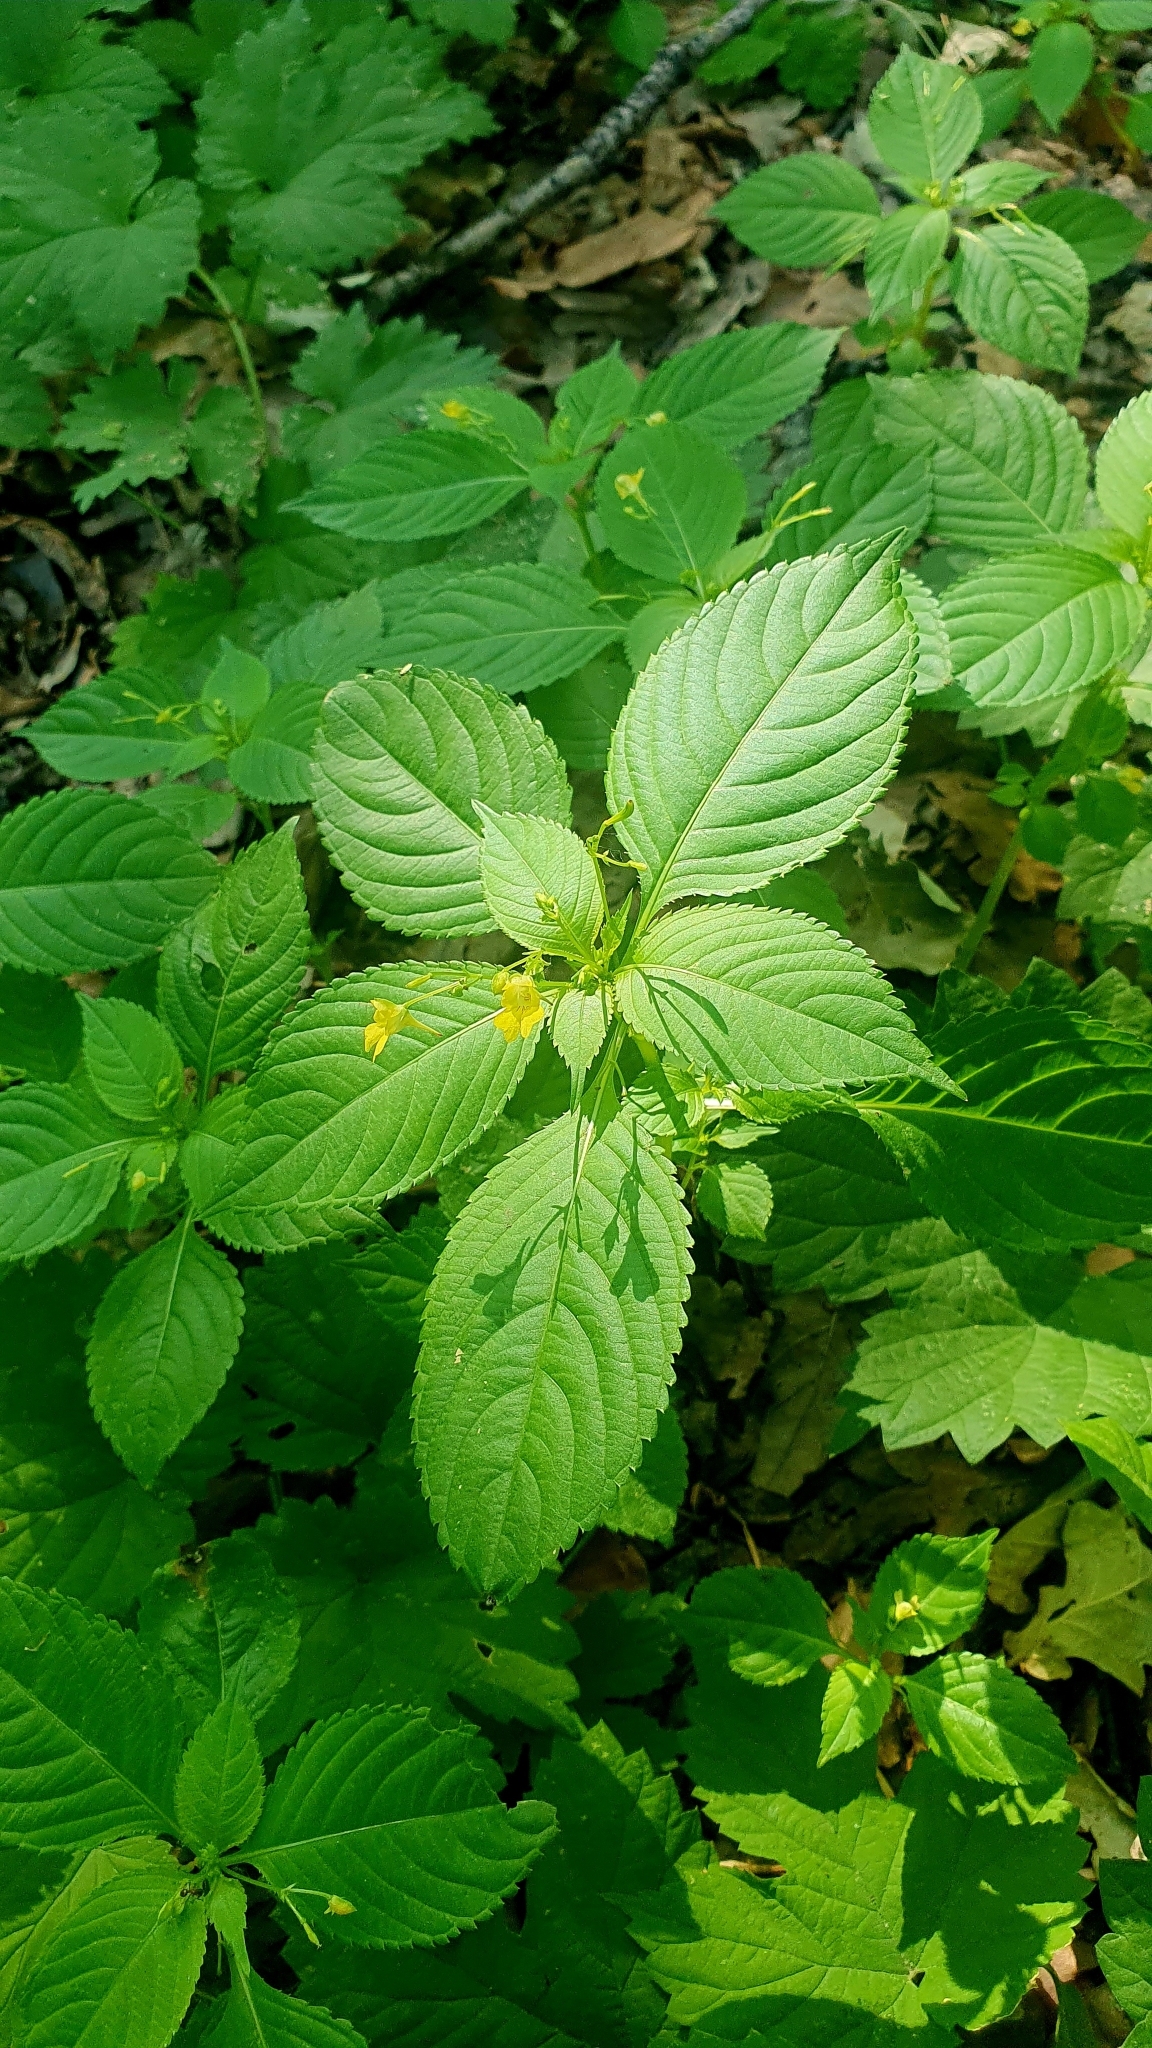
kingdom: Plantae
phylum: Tracheophyta
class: Magnoliopsida
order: Ericales
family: Balsaminaceae
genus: Impatiens
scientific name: Impatiens parviflora
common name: Small balsam
